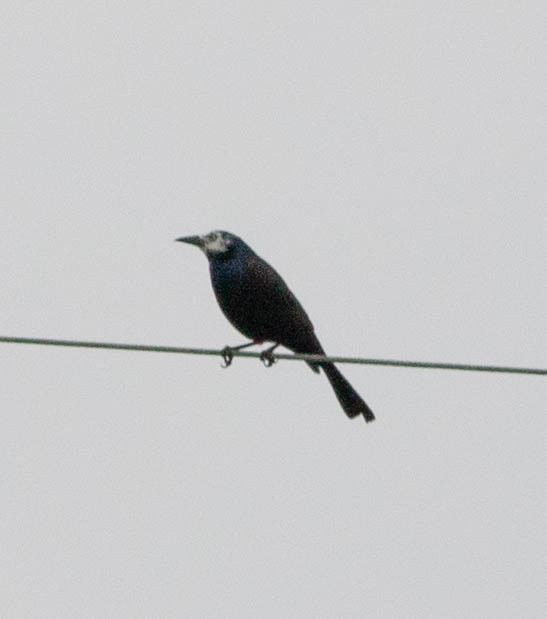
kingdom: Animalia
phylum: Chordata
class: Aves
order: Passeriformes
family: Icteridae
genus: Quiscalus
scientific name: Quiscalus quiscula
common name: Common grackle
